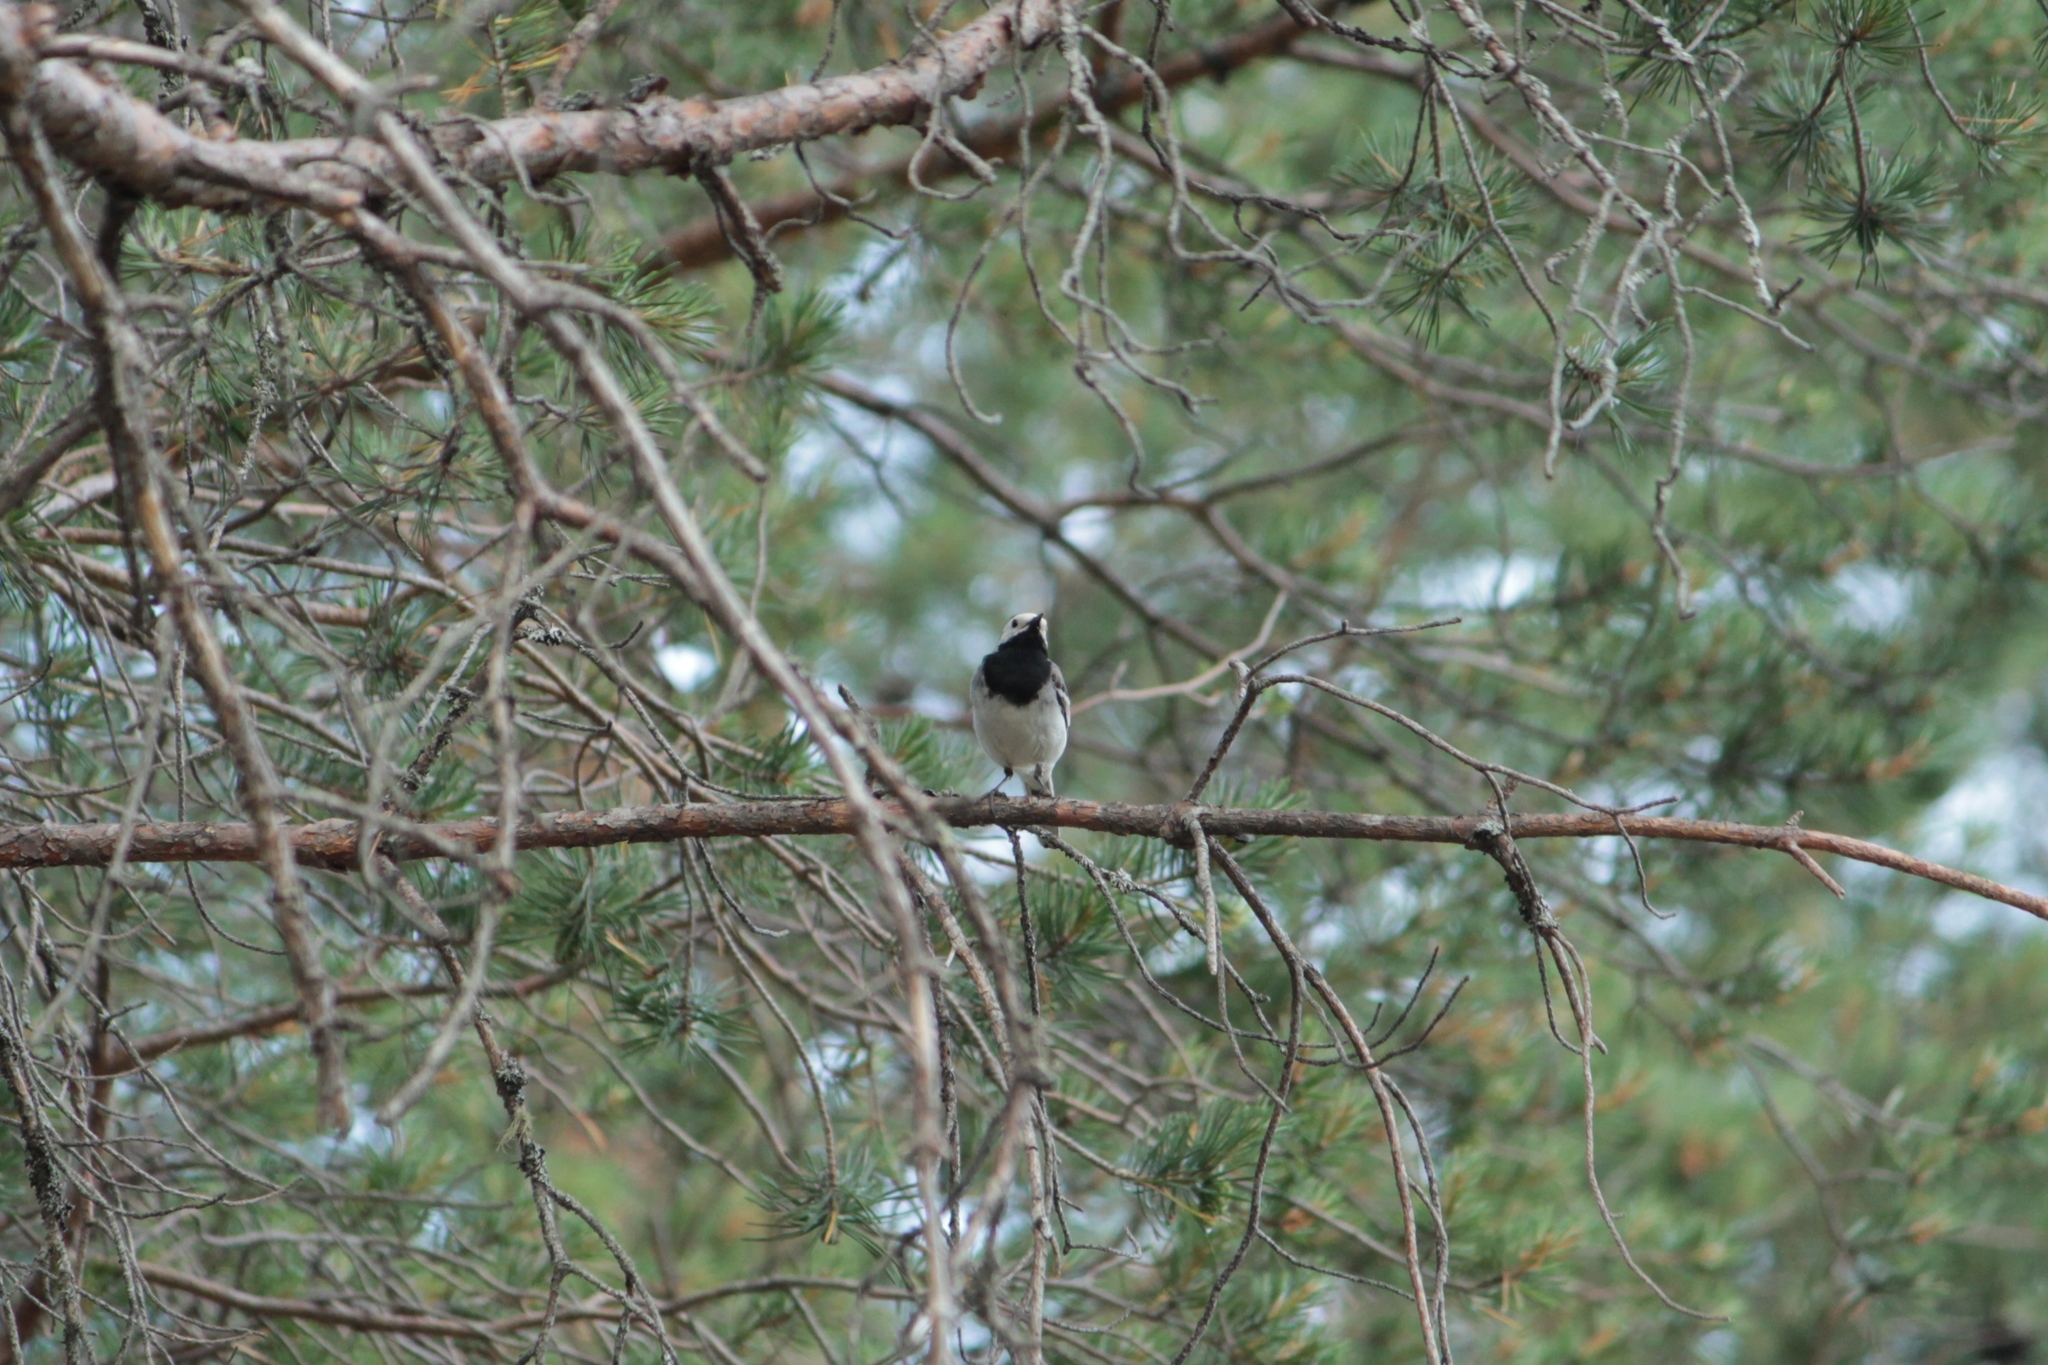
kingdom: Animalia
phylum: Chordata
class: Aves
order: Passeriformes
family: Motacillidae
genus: Motacilla
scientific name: Motacilla alba
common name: White wagtail
